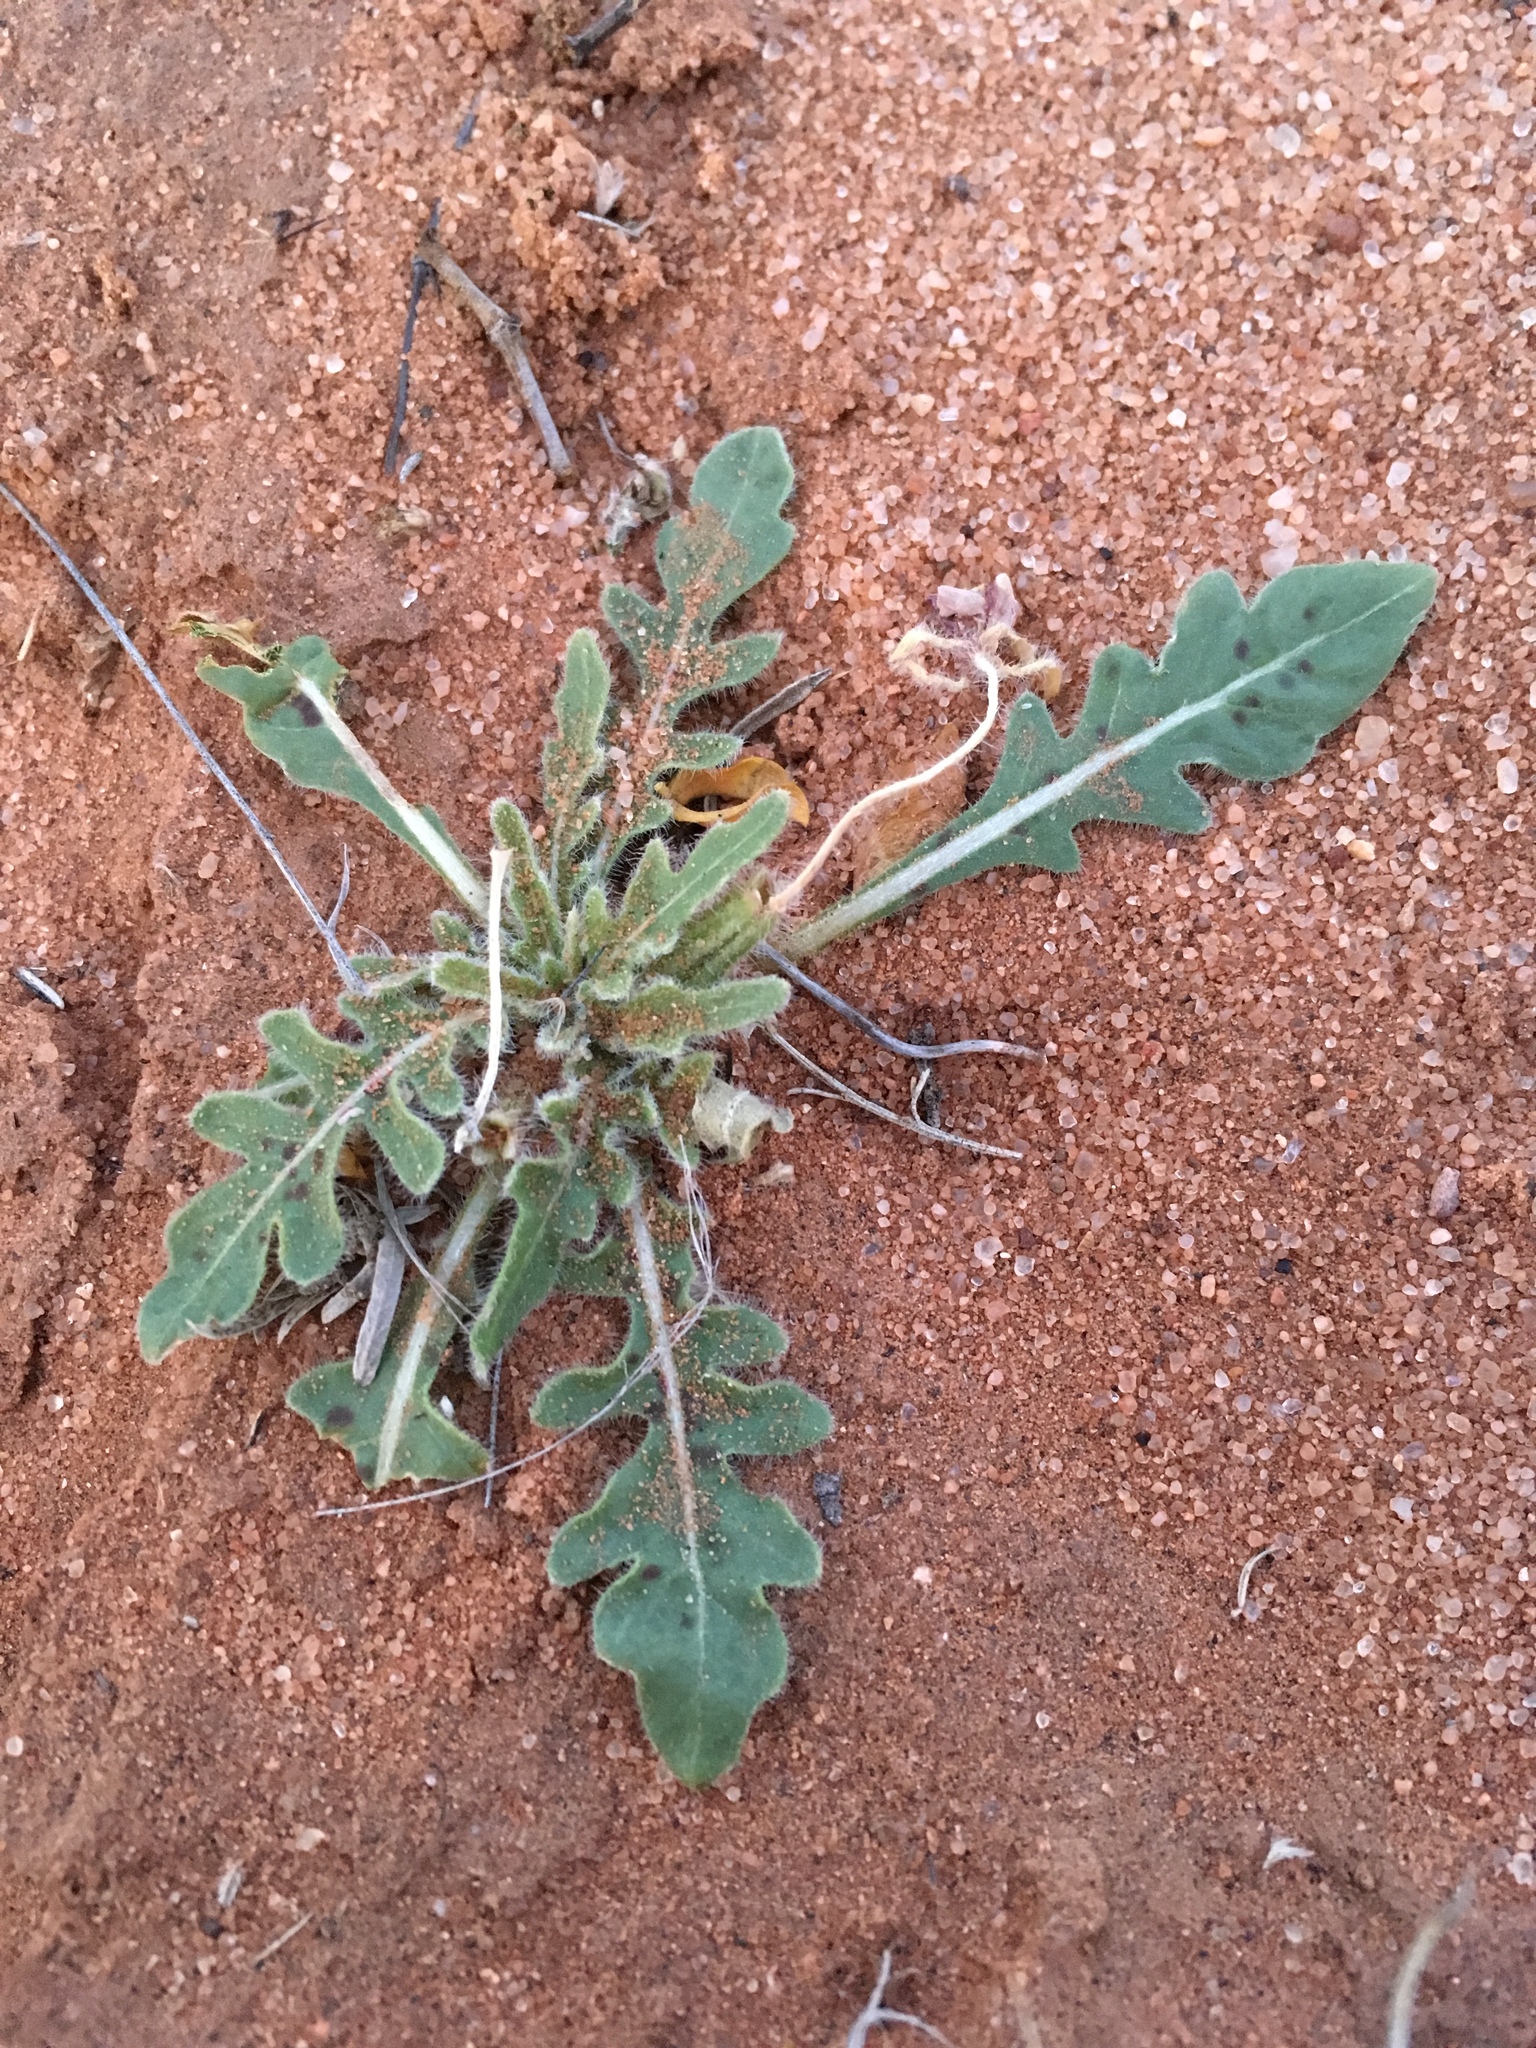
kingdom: Plantae
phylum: Tracheophyta
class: Magnoliopsida
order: Myrtales
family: Onagraceae
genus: Oenothera
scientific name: Oenothera primiveris
